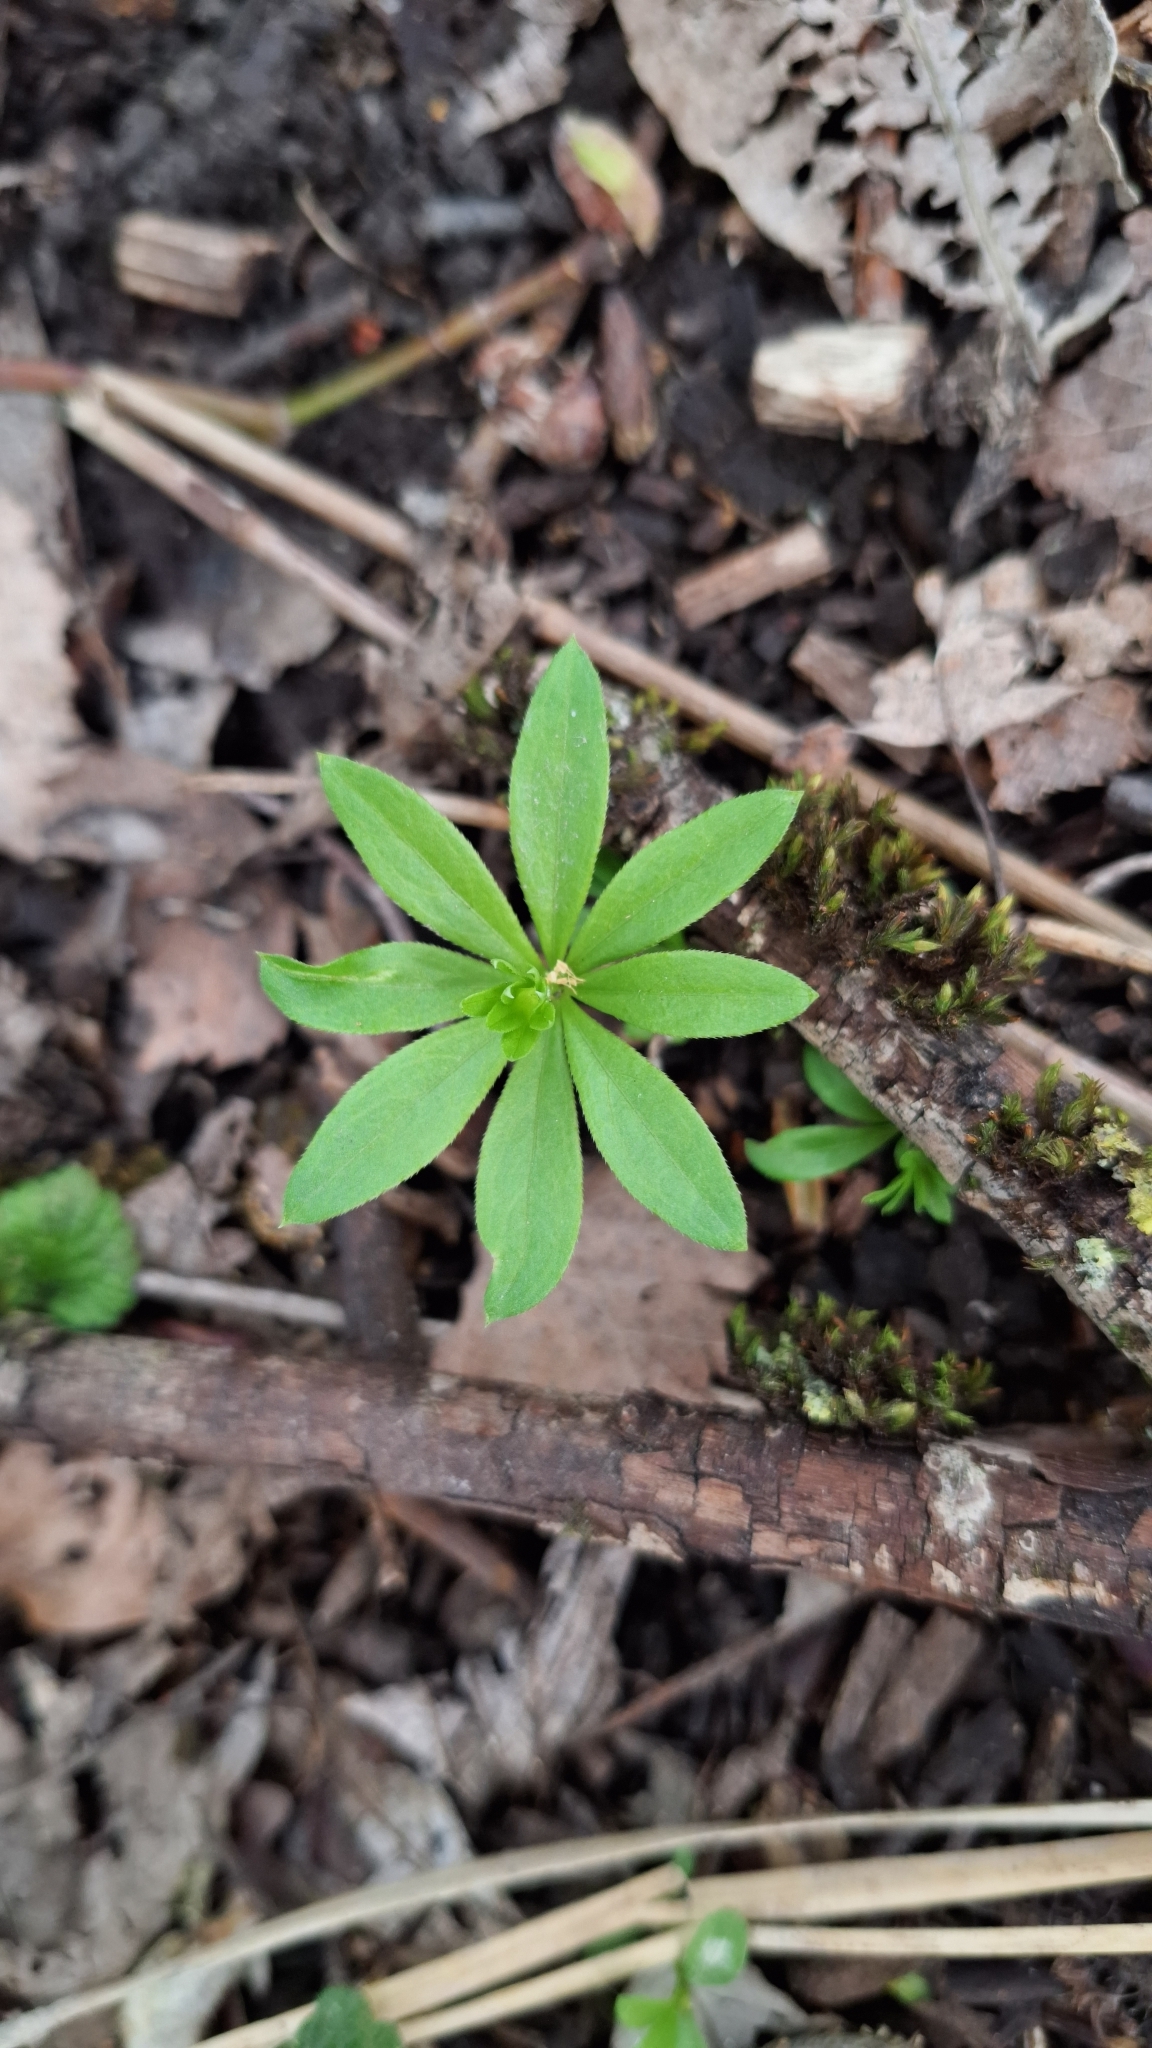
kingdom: Plantae
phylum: Tracheophyta
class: Magnoliopsida
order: Gentianales
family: Rubiaceae
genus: Galium
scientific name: Galium odoratum
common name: Sweet woodruff
